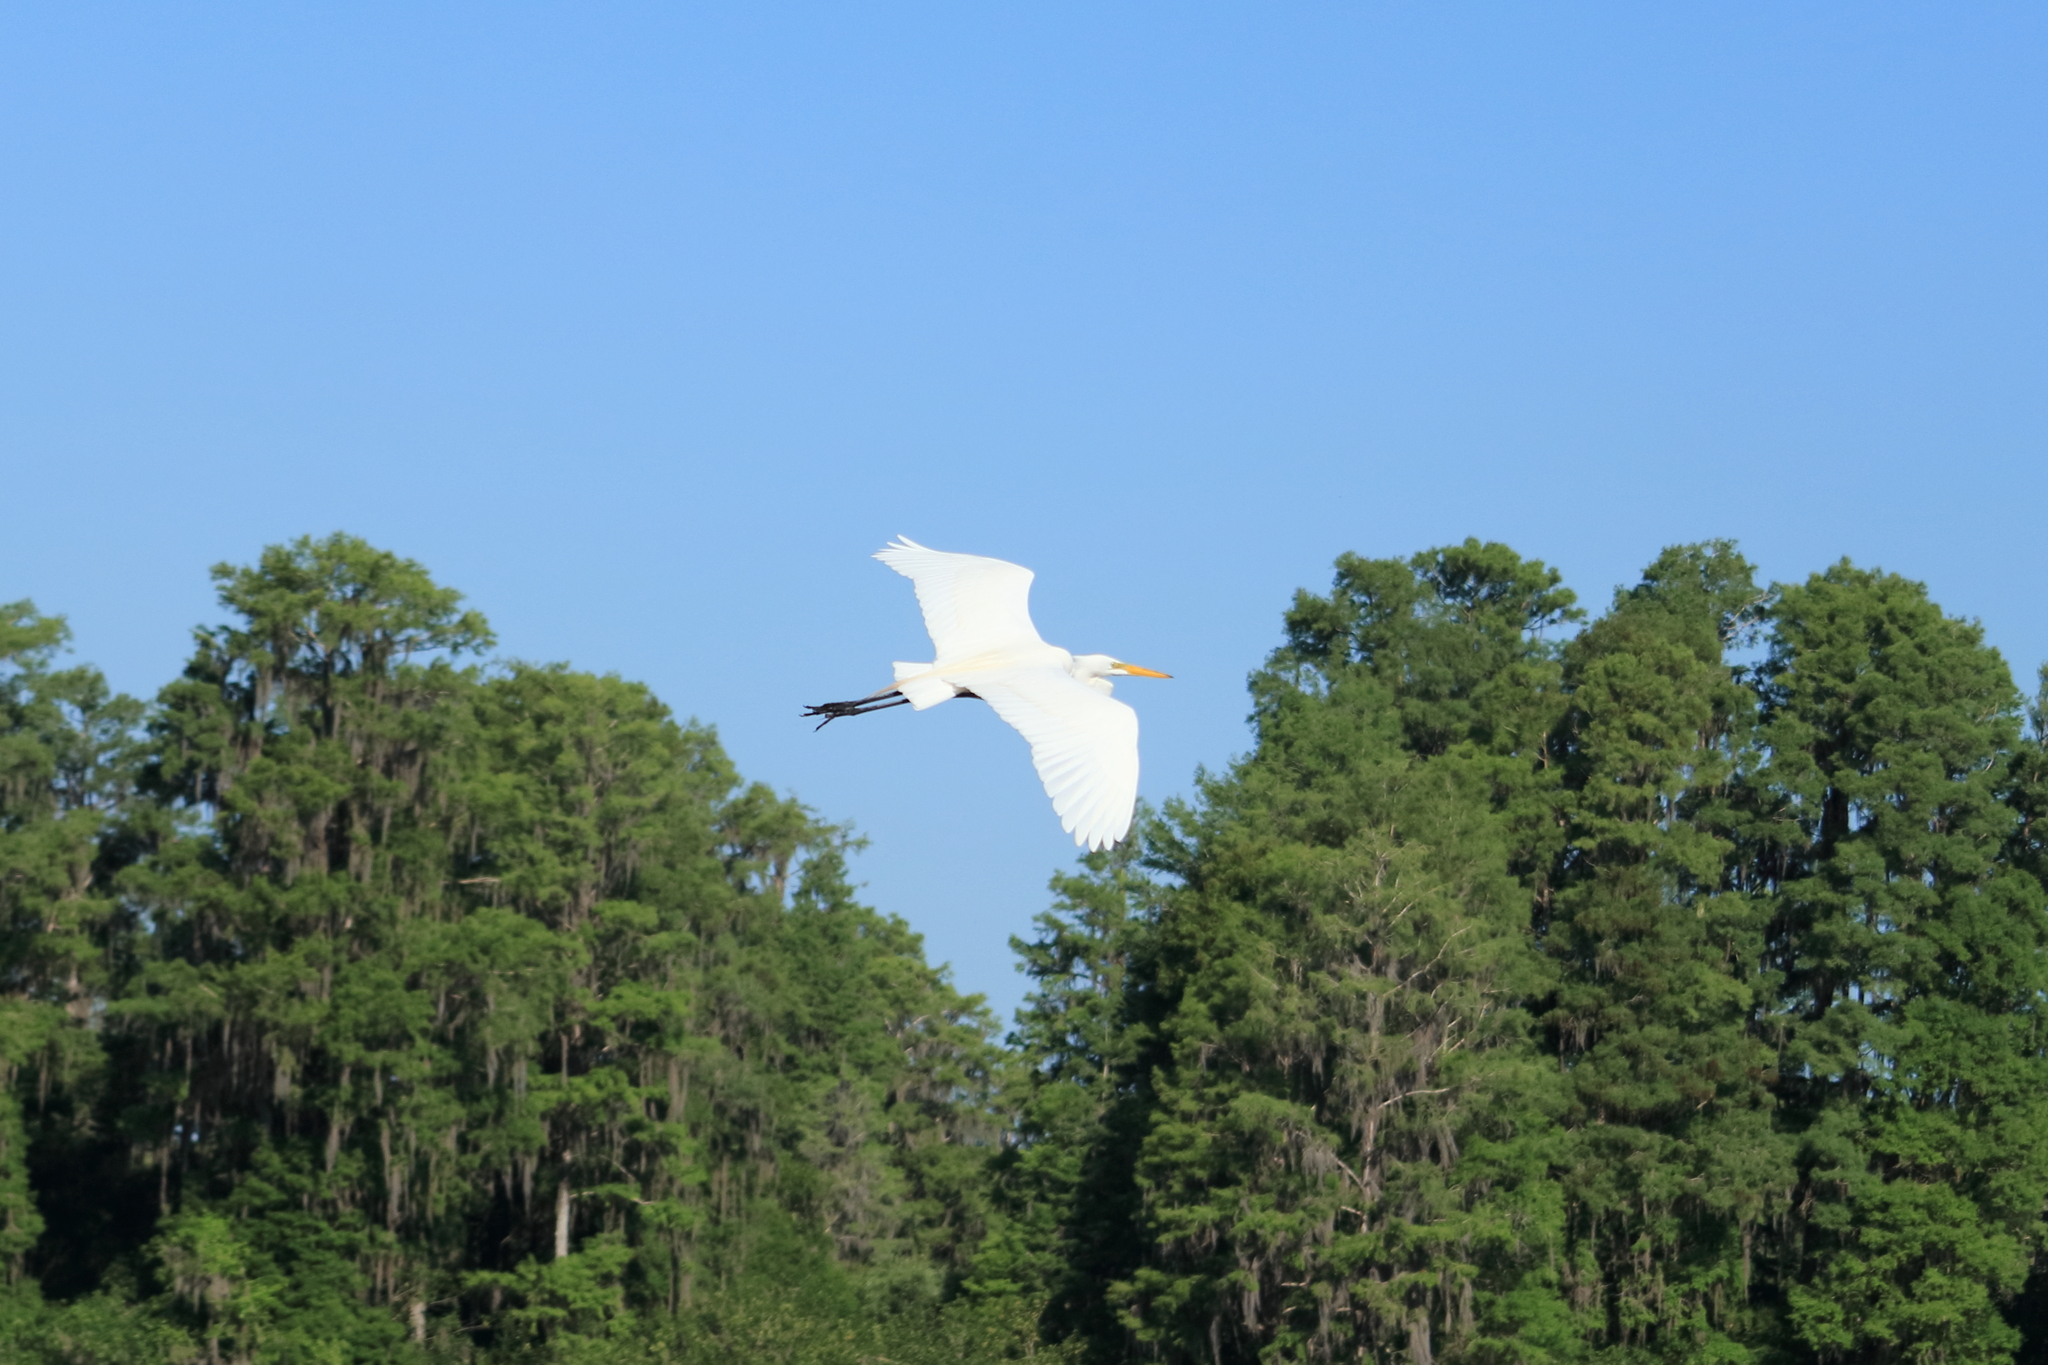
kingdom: Animalia
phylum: Chordata
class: Aves
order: Pelecaniformes
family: Ardeidae
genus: Ardea
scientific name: Ardea alba
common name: Great egret
